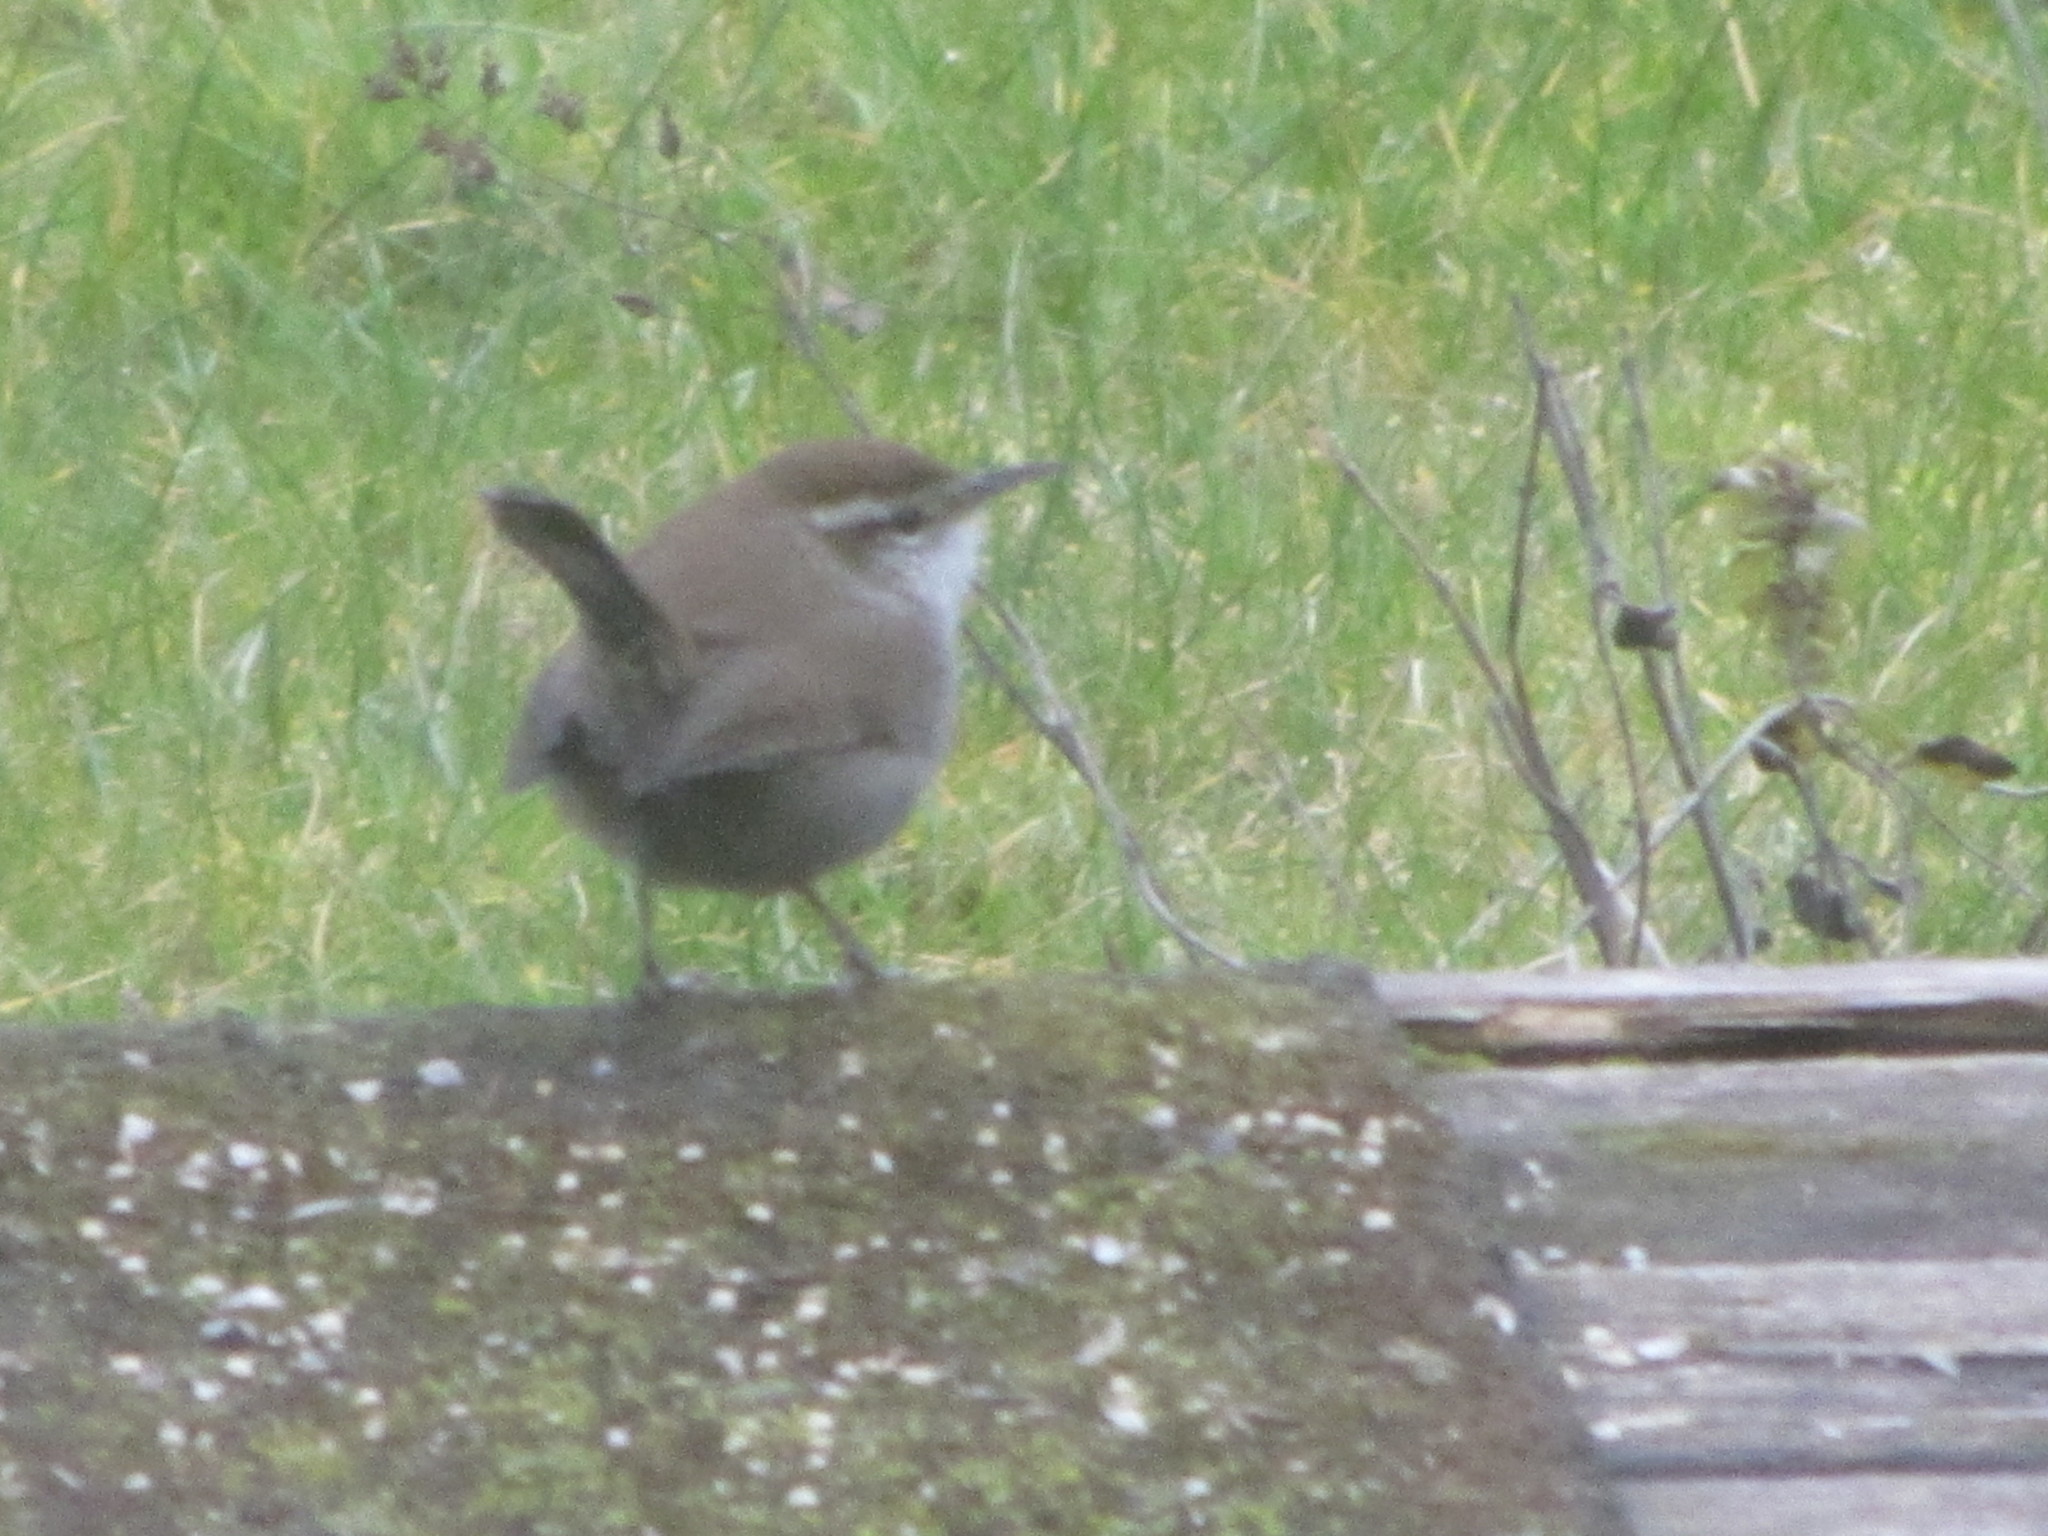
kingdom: Animalia
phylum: Chordata
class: Aves
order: Passeriformes
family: Troglodytidae
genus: Thryomanes
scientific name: Thryomanes bewickii
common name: Bewick's wren
